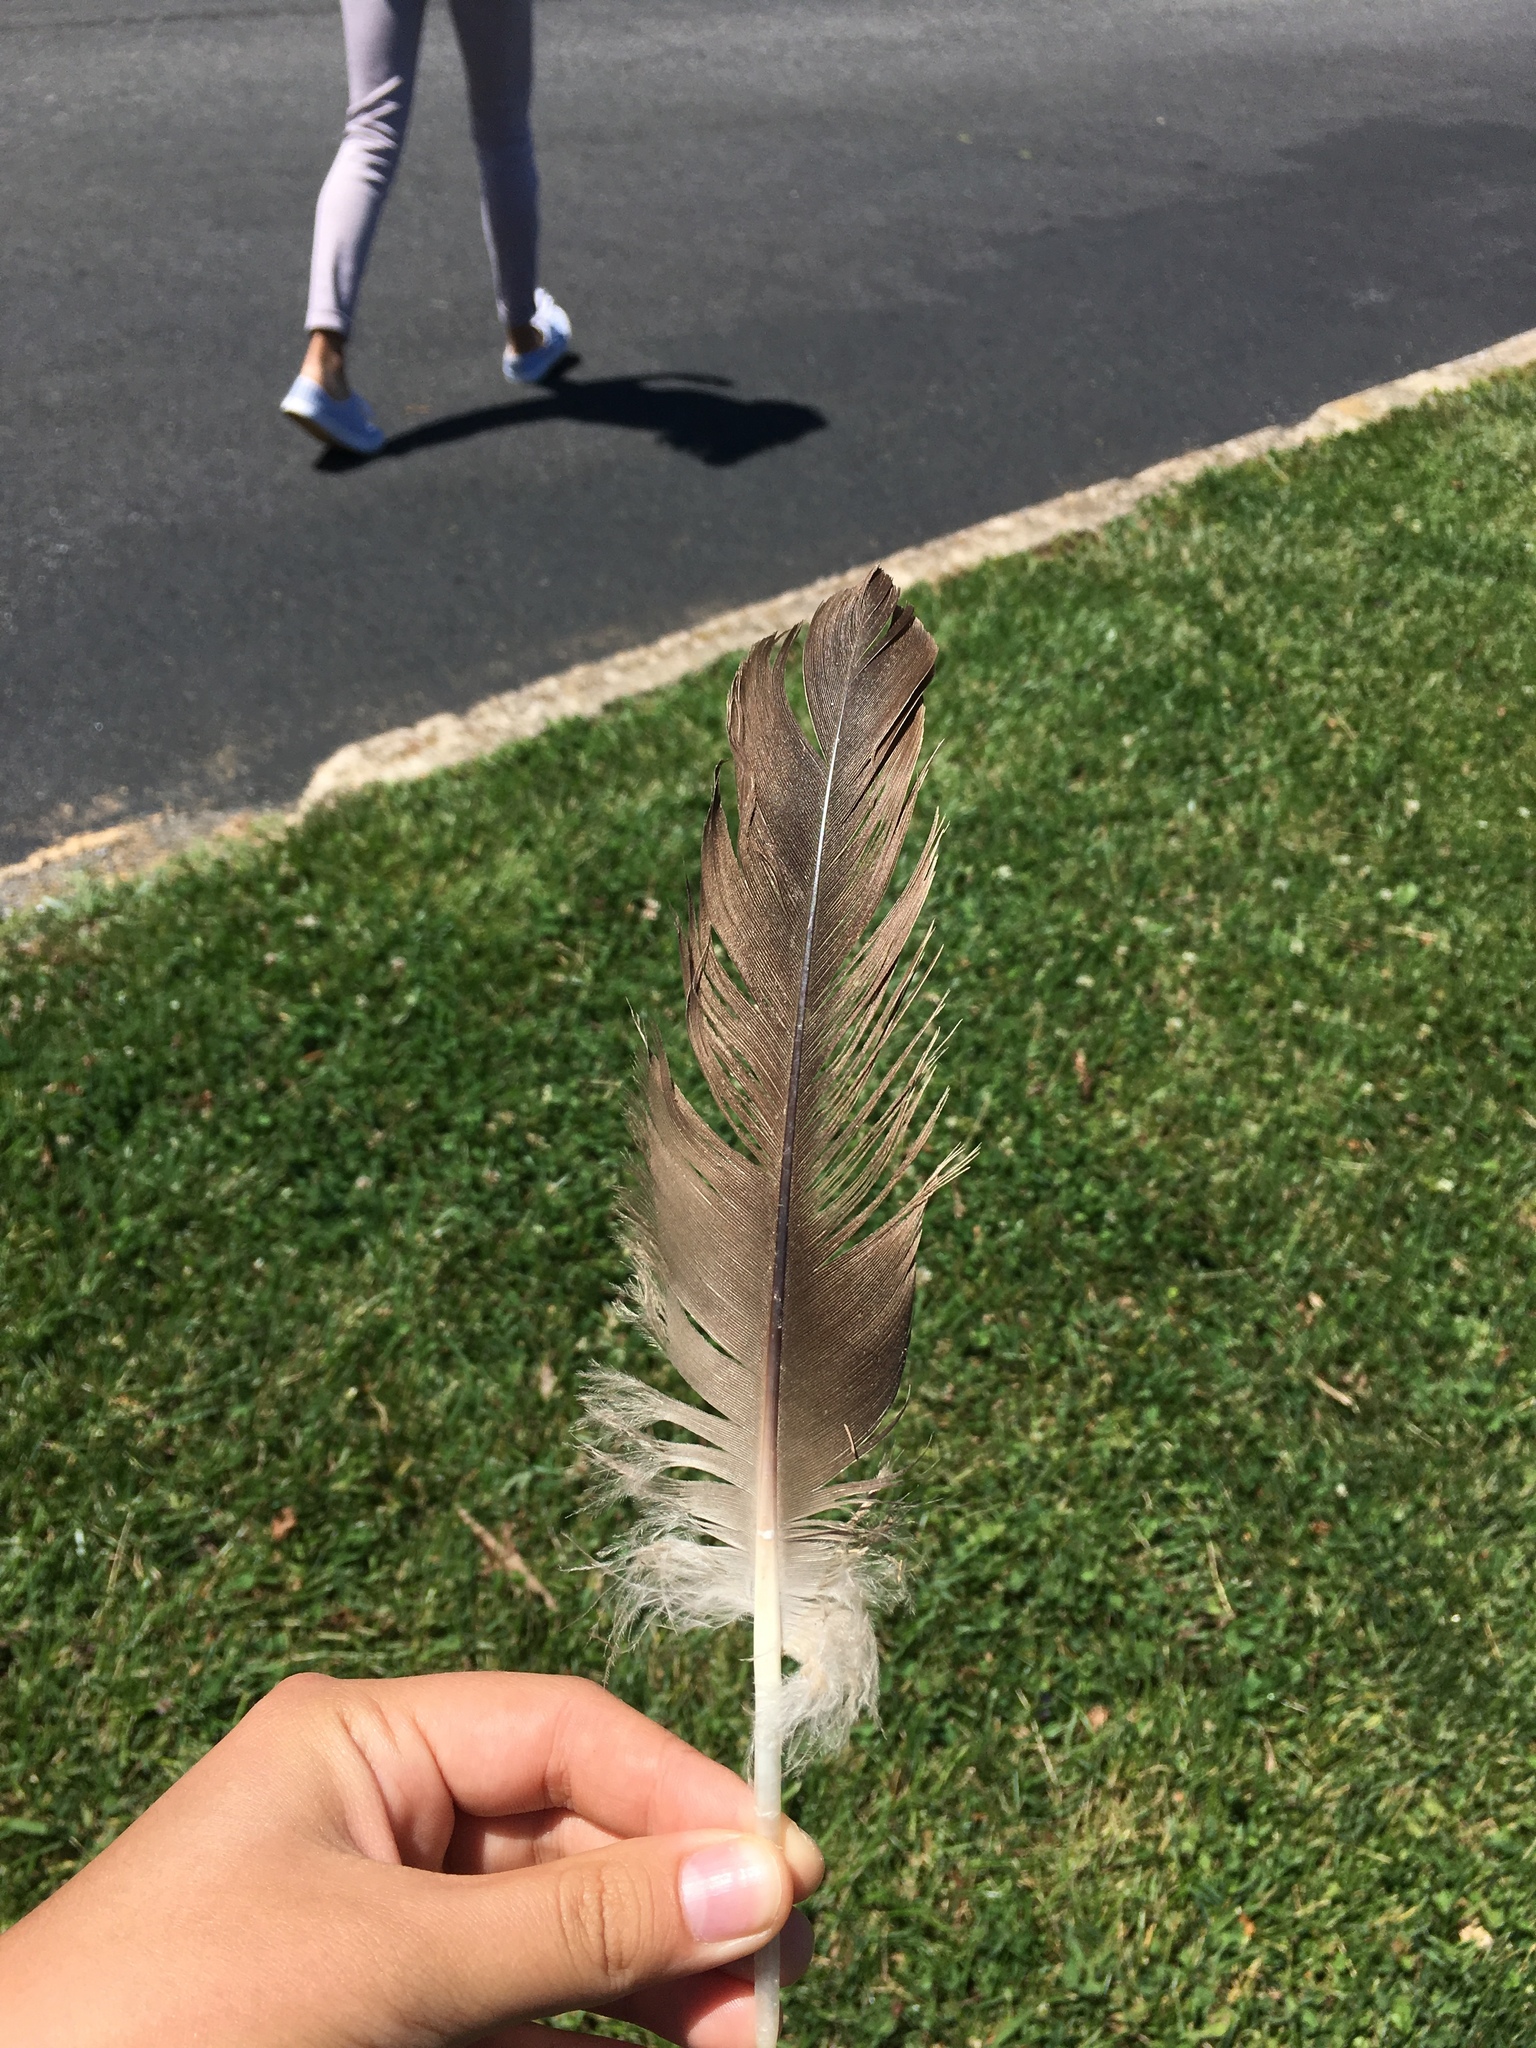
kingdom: Animalia
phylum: Chordata
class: Aves
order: Anseriformes
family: Anatidae
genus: Branta
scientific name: Branta canadensis
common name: Canada goose
